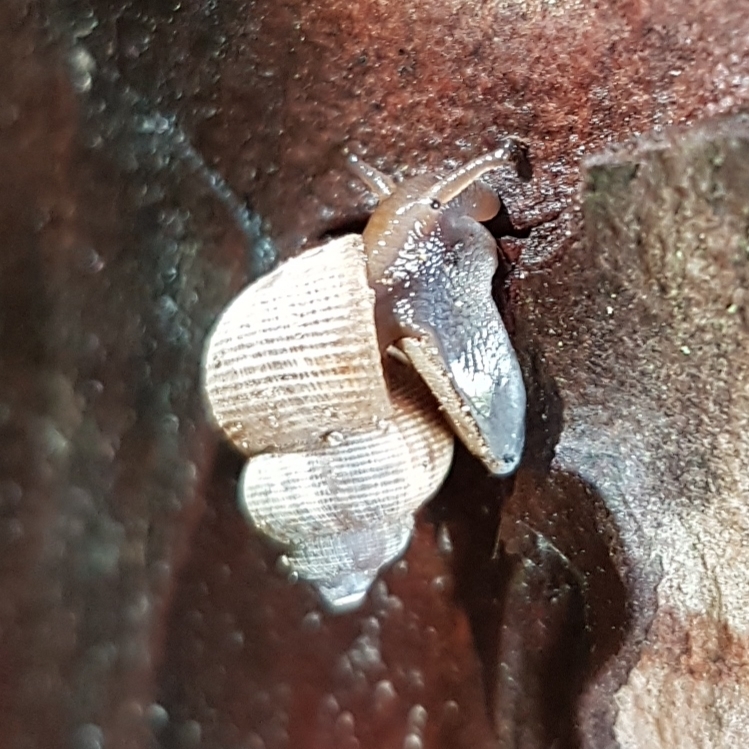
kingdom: Animalia
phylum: Mollusca
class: Gastropoda
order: Littorinimorpha
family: Pomatiidae
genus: Pomatias
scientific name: Pomatias elegans
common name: Red-mouthed snail
